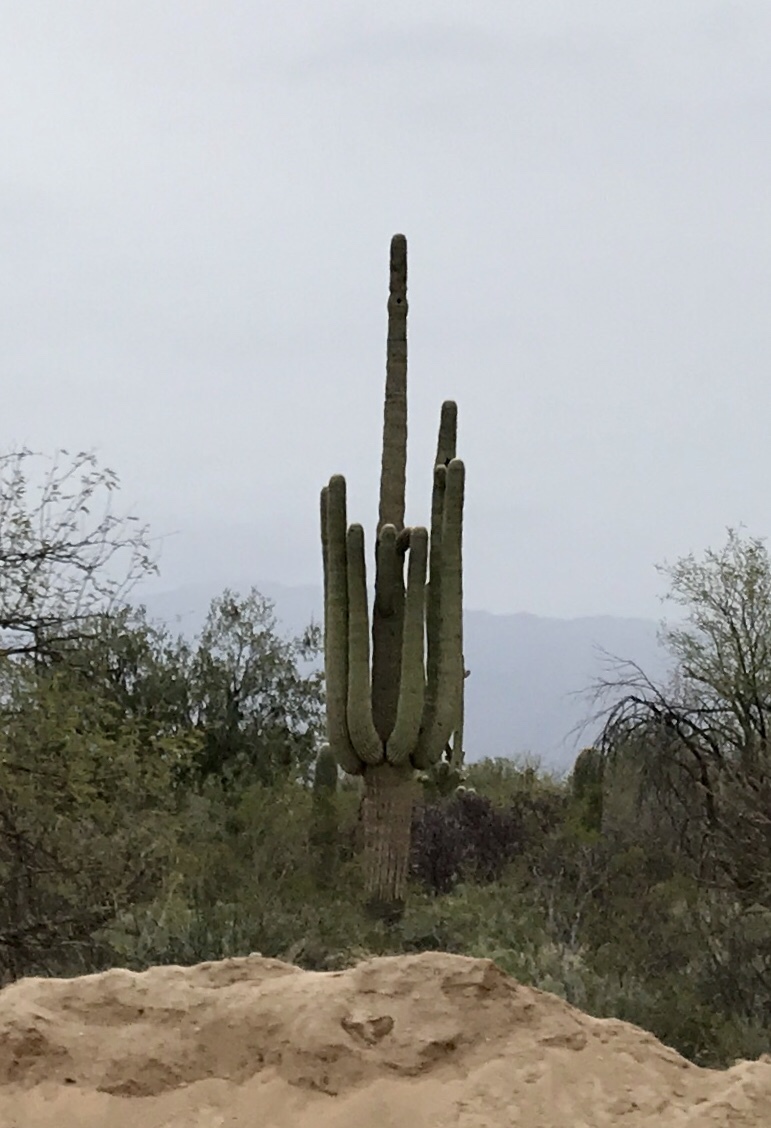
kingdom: Plantae
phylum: Tracheophyta
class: Magnoliopsida
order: Caryophyllales
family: Cactaceae
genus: Carnegiea
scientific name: Carnegiea gigantea
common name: Saguaro
